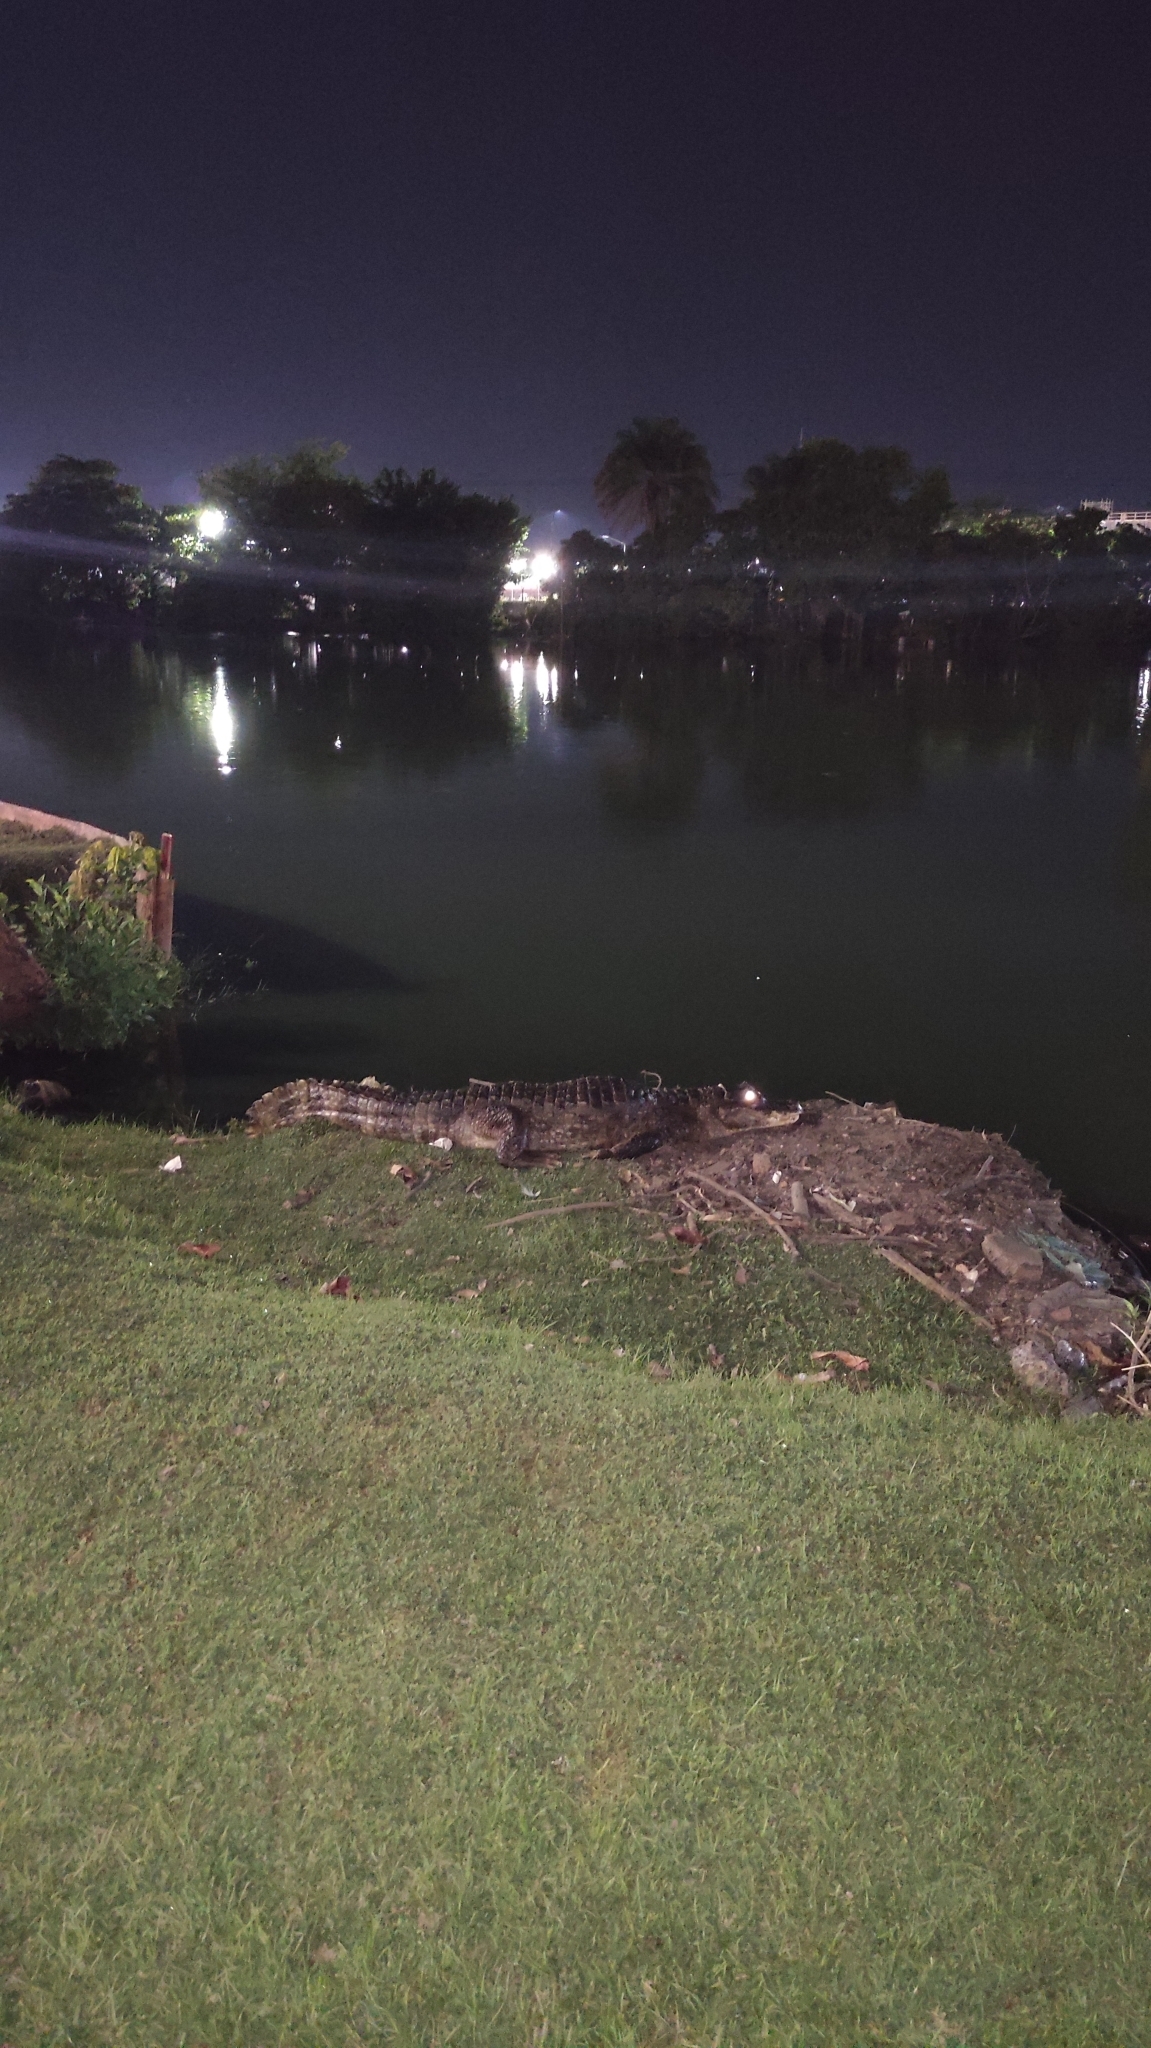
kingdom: Animalia
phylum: Chordata
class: Crocodylia
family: Alligatoridae
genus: Caiman
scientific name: Caiman crocodilus
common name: Common caiman
